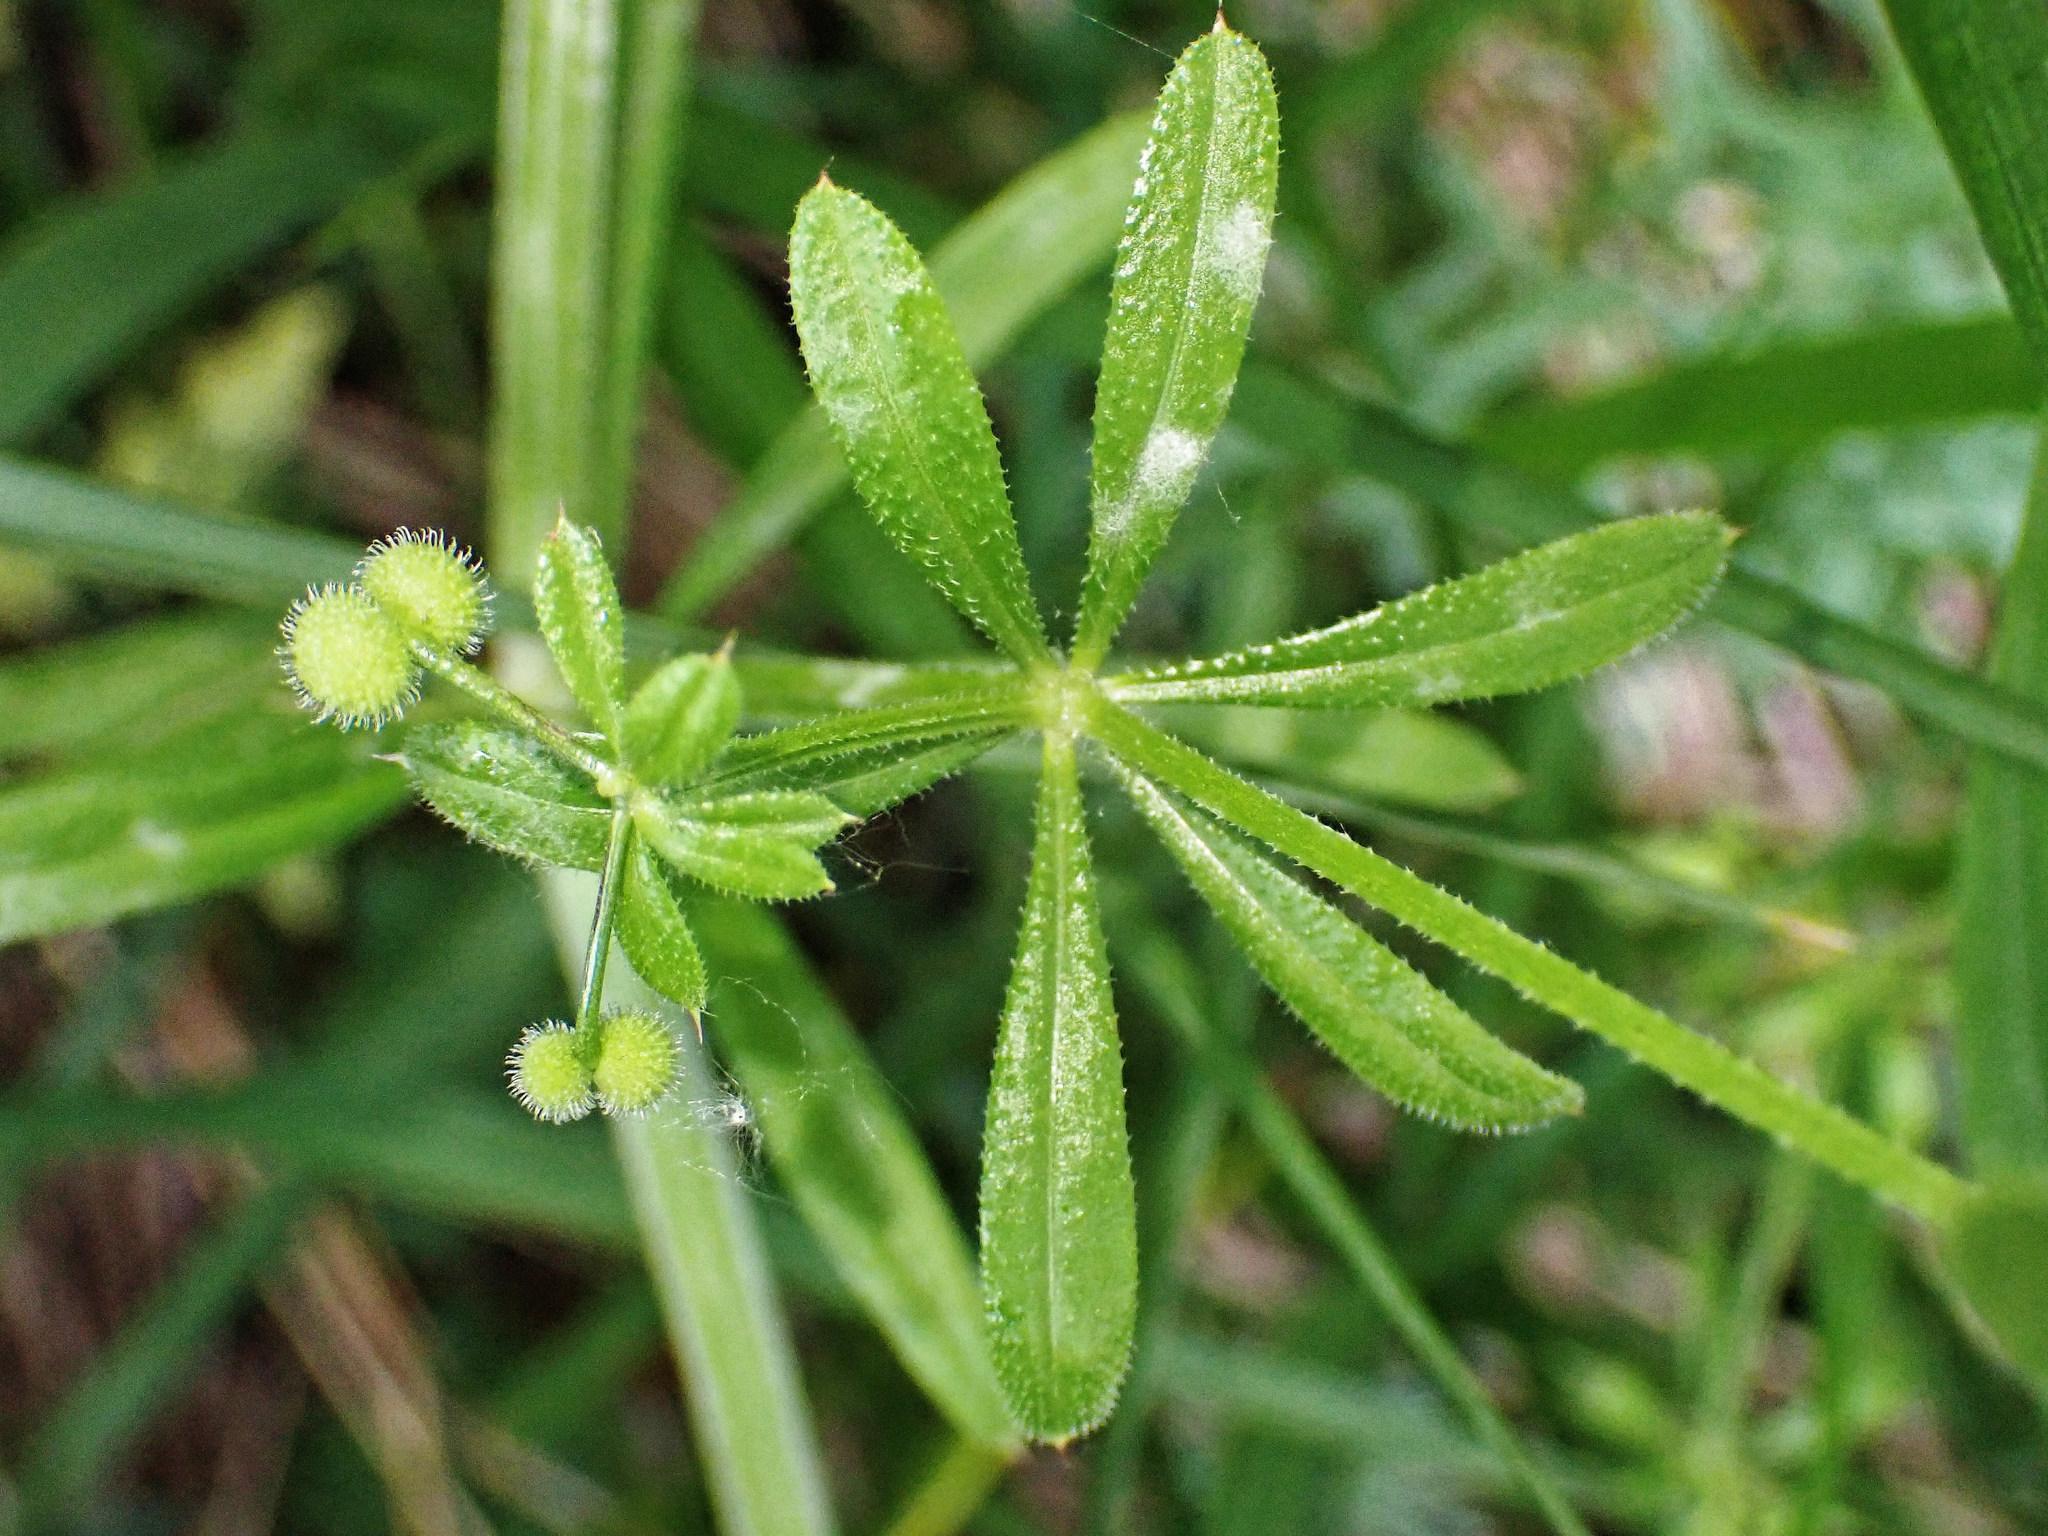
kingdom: Plantae
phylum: Tracheophyta
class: Magnoliopsida
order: Gentianales
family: Rubiaceae
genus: Galium
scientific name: Galium aparine
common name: Cleavers
